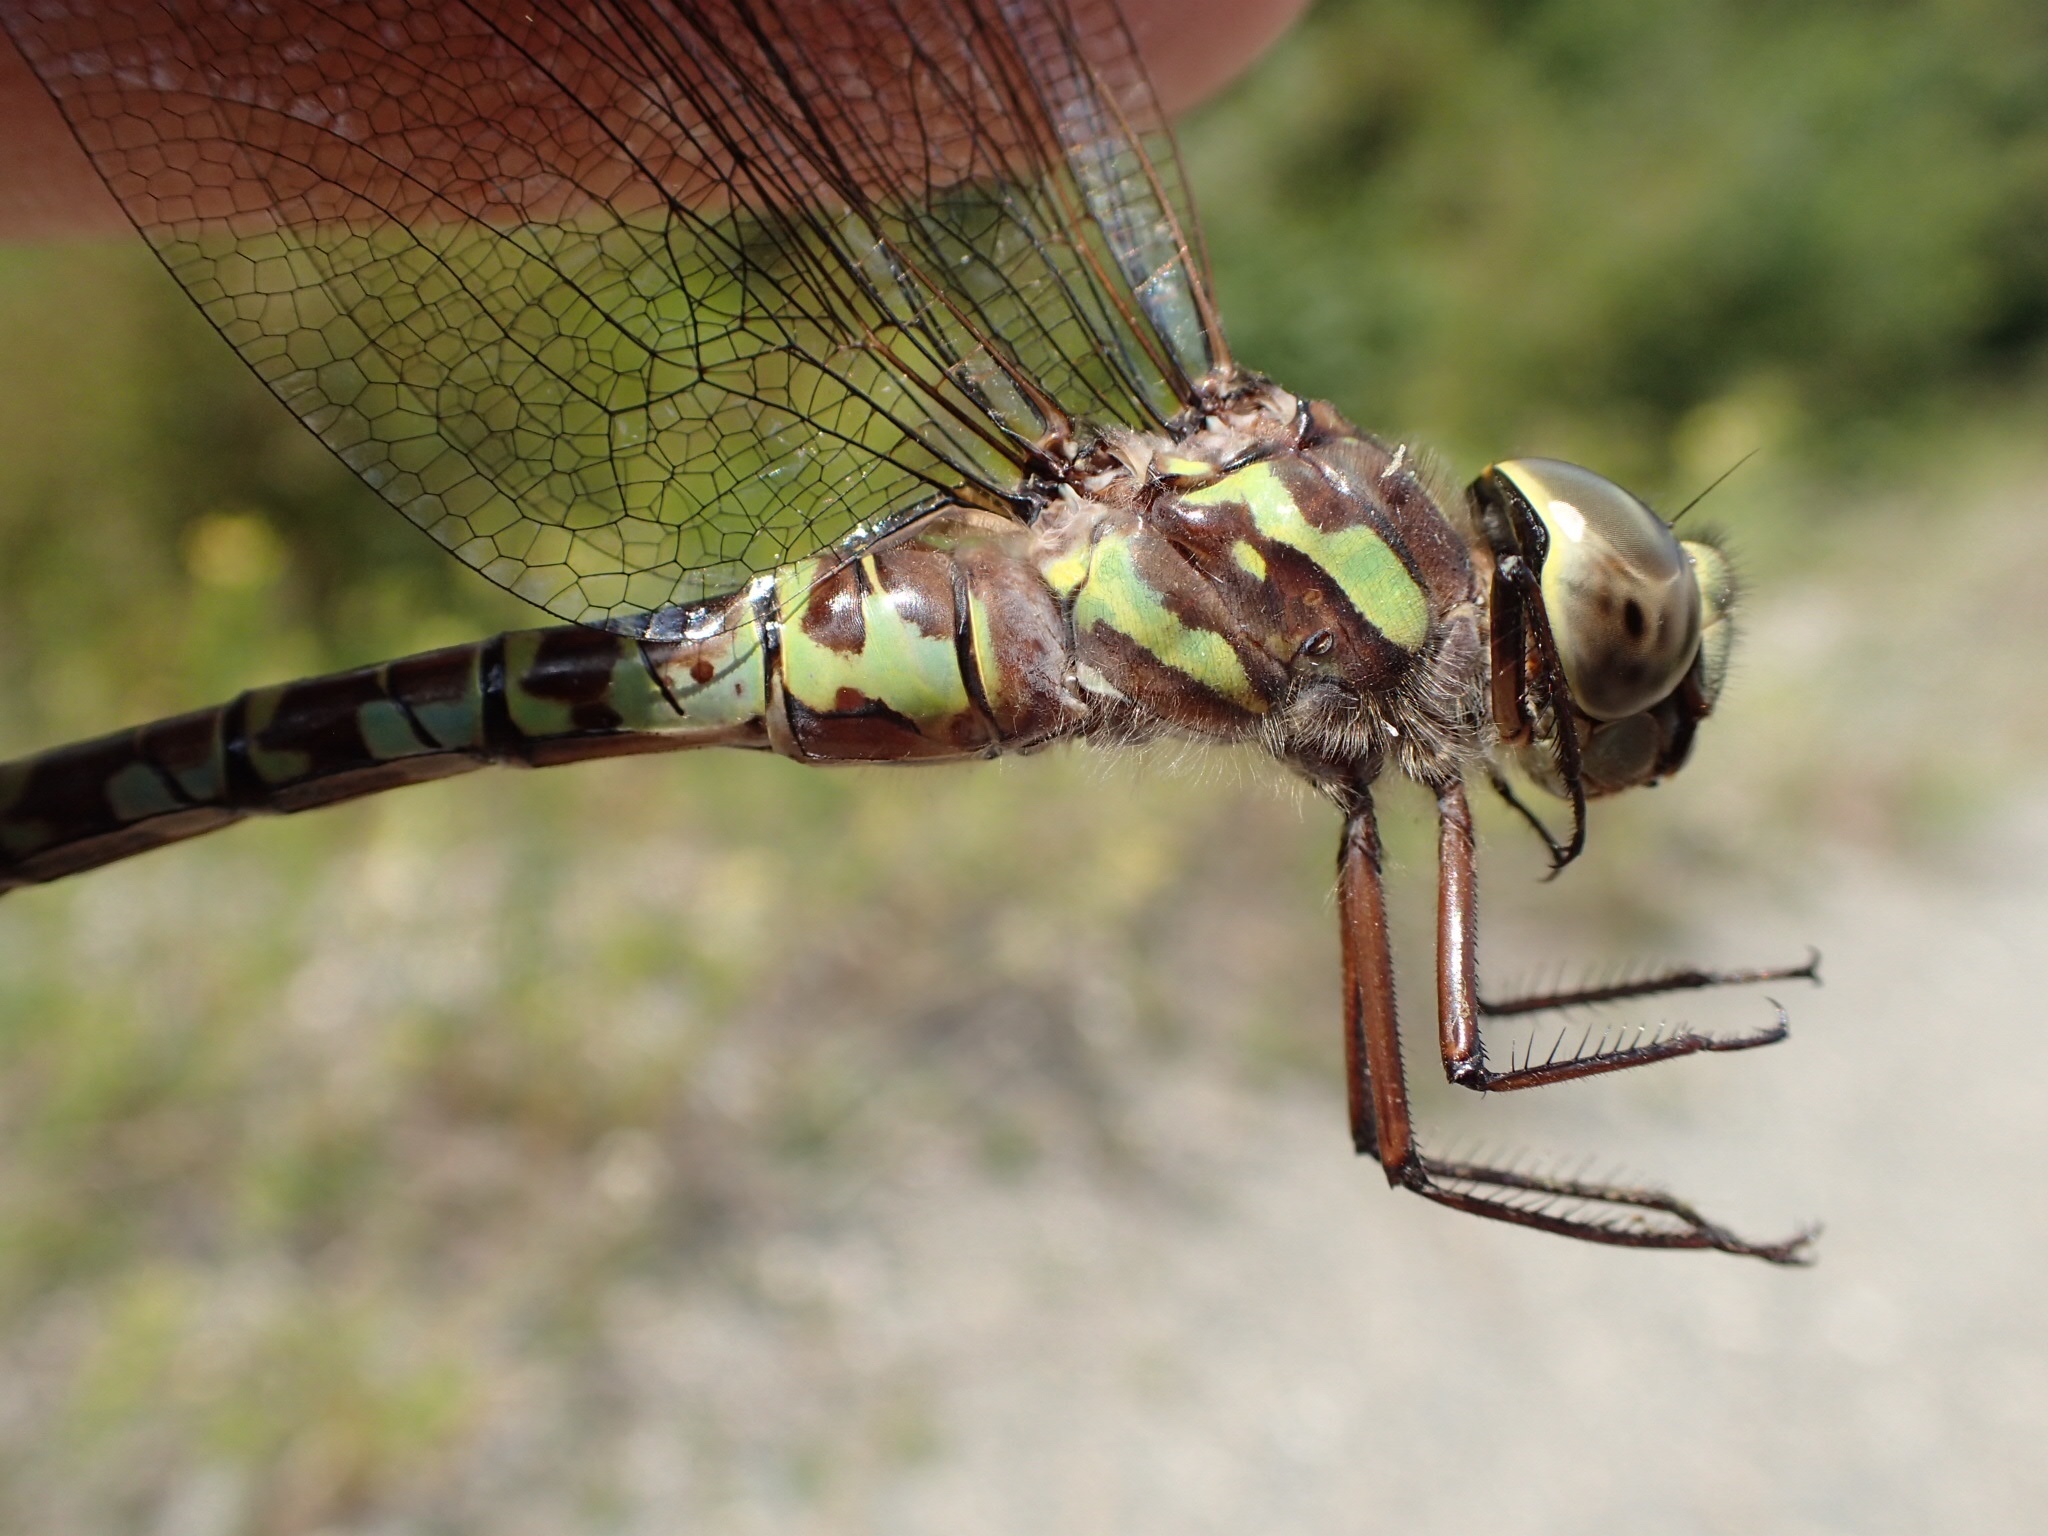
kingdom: Animalia
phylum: Arthropoda
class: Insecta
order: Odonata
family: Aeshnidae
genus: Aeshna
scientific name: Aeshna canadensis
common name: Canada darner
